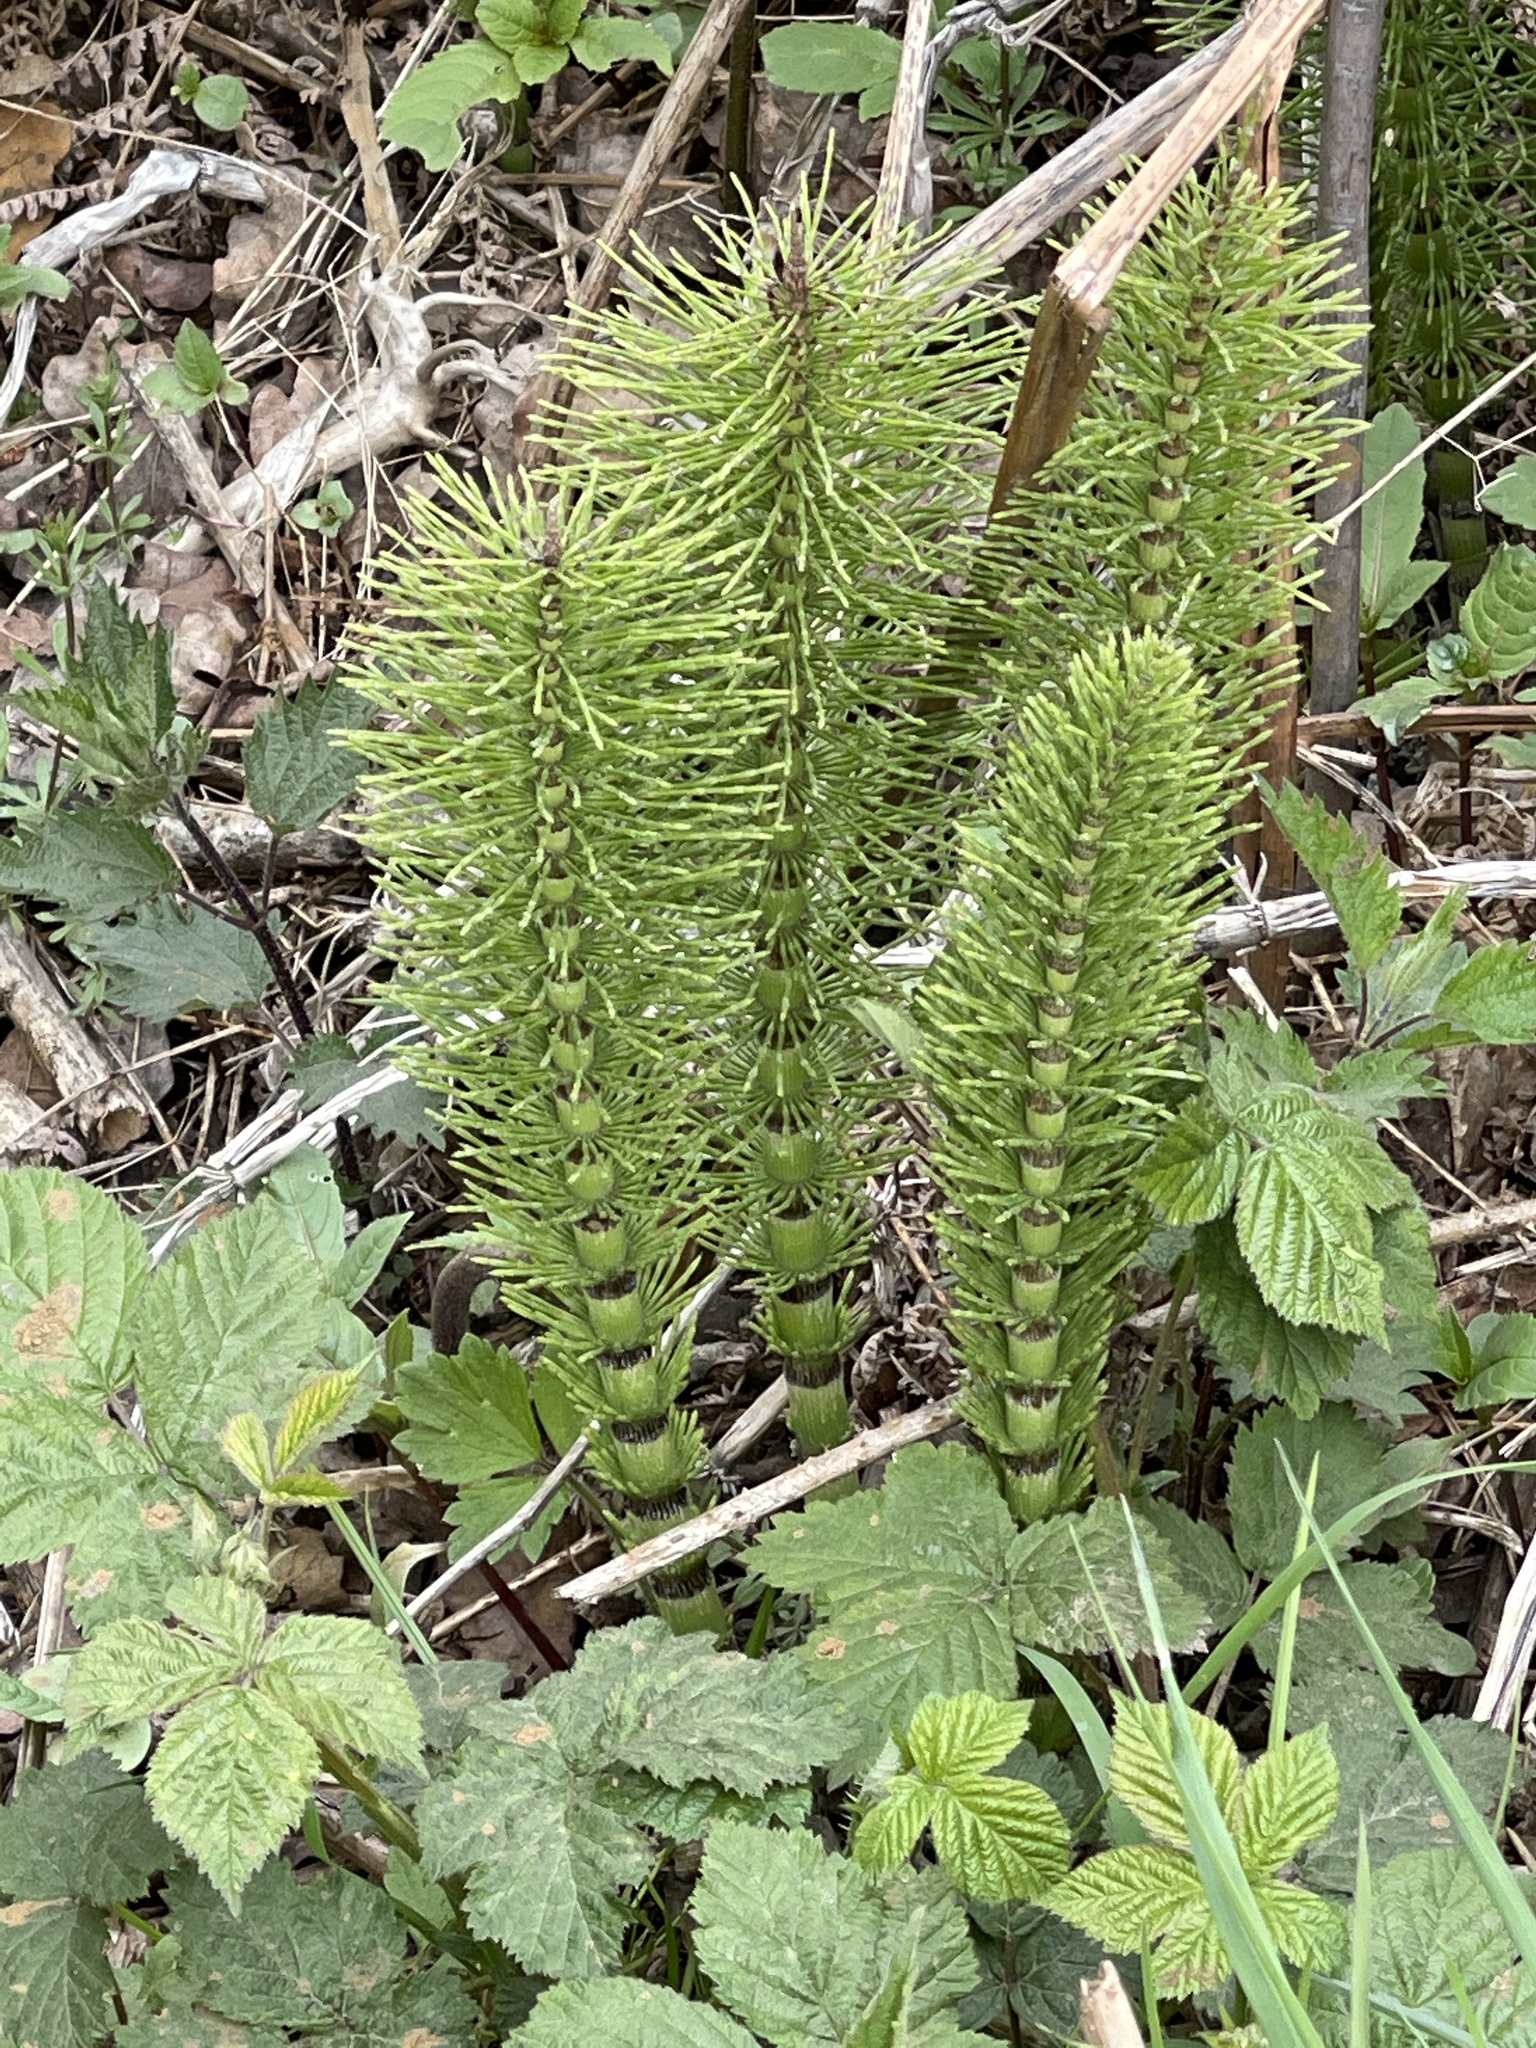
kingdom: Plantae
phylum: Tracheophyta
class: Polypodiopsida
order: Equisetales
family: Equisetaceae
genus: Equisetum
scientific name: Equisetum telmateia
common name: Great horsetail
